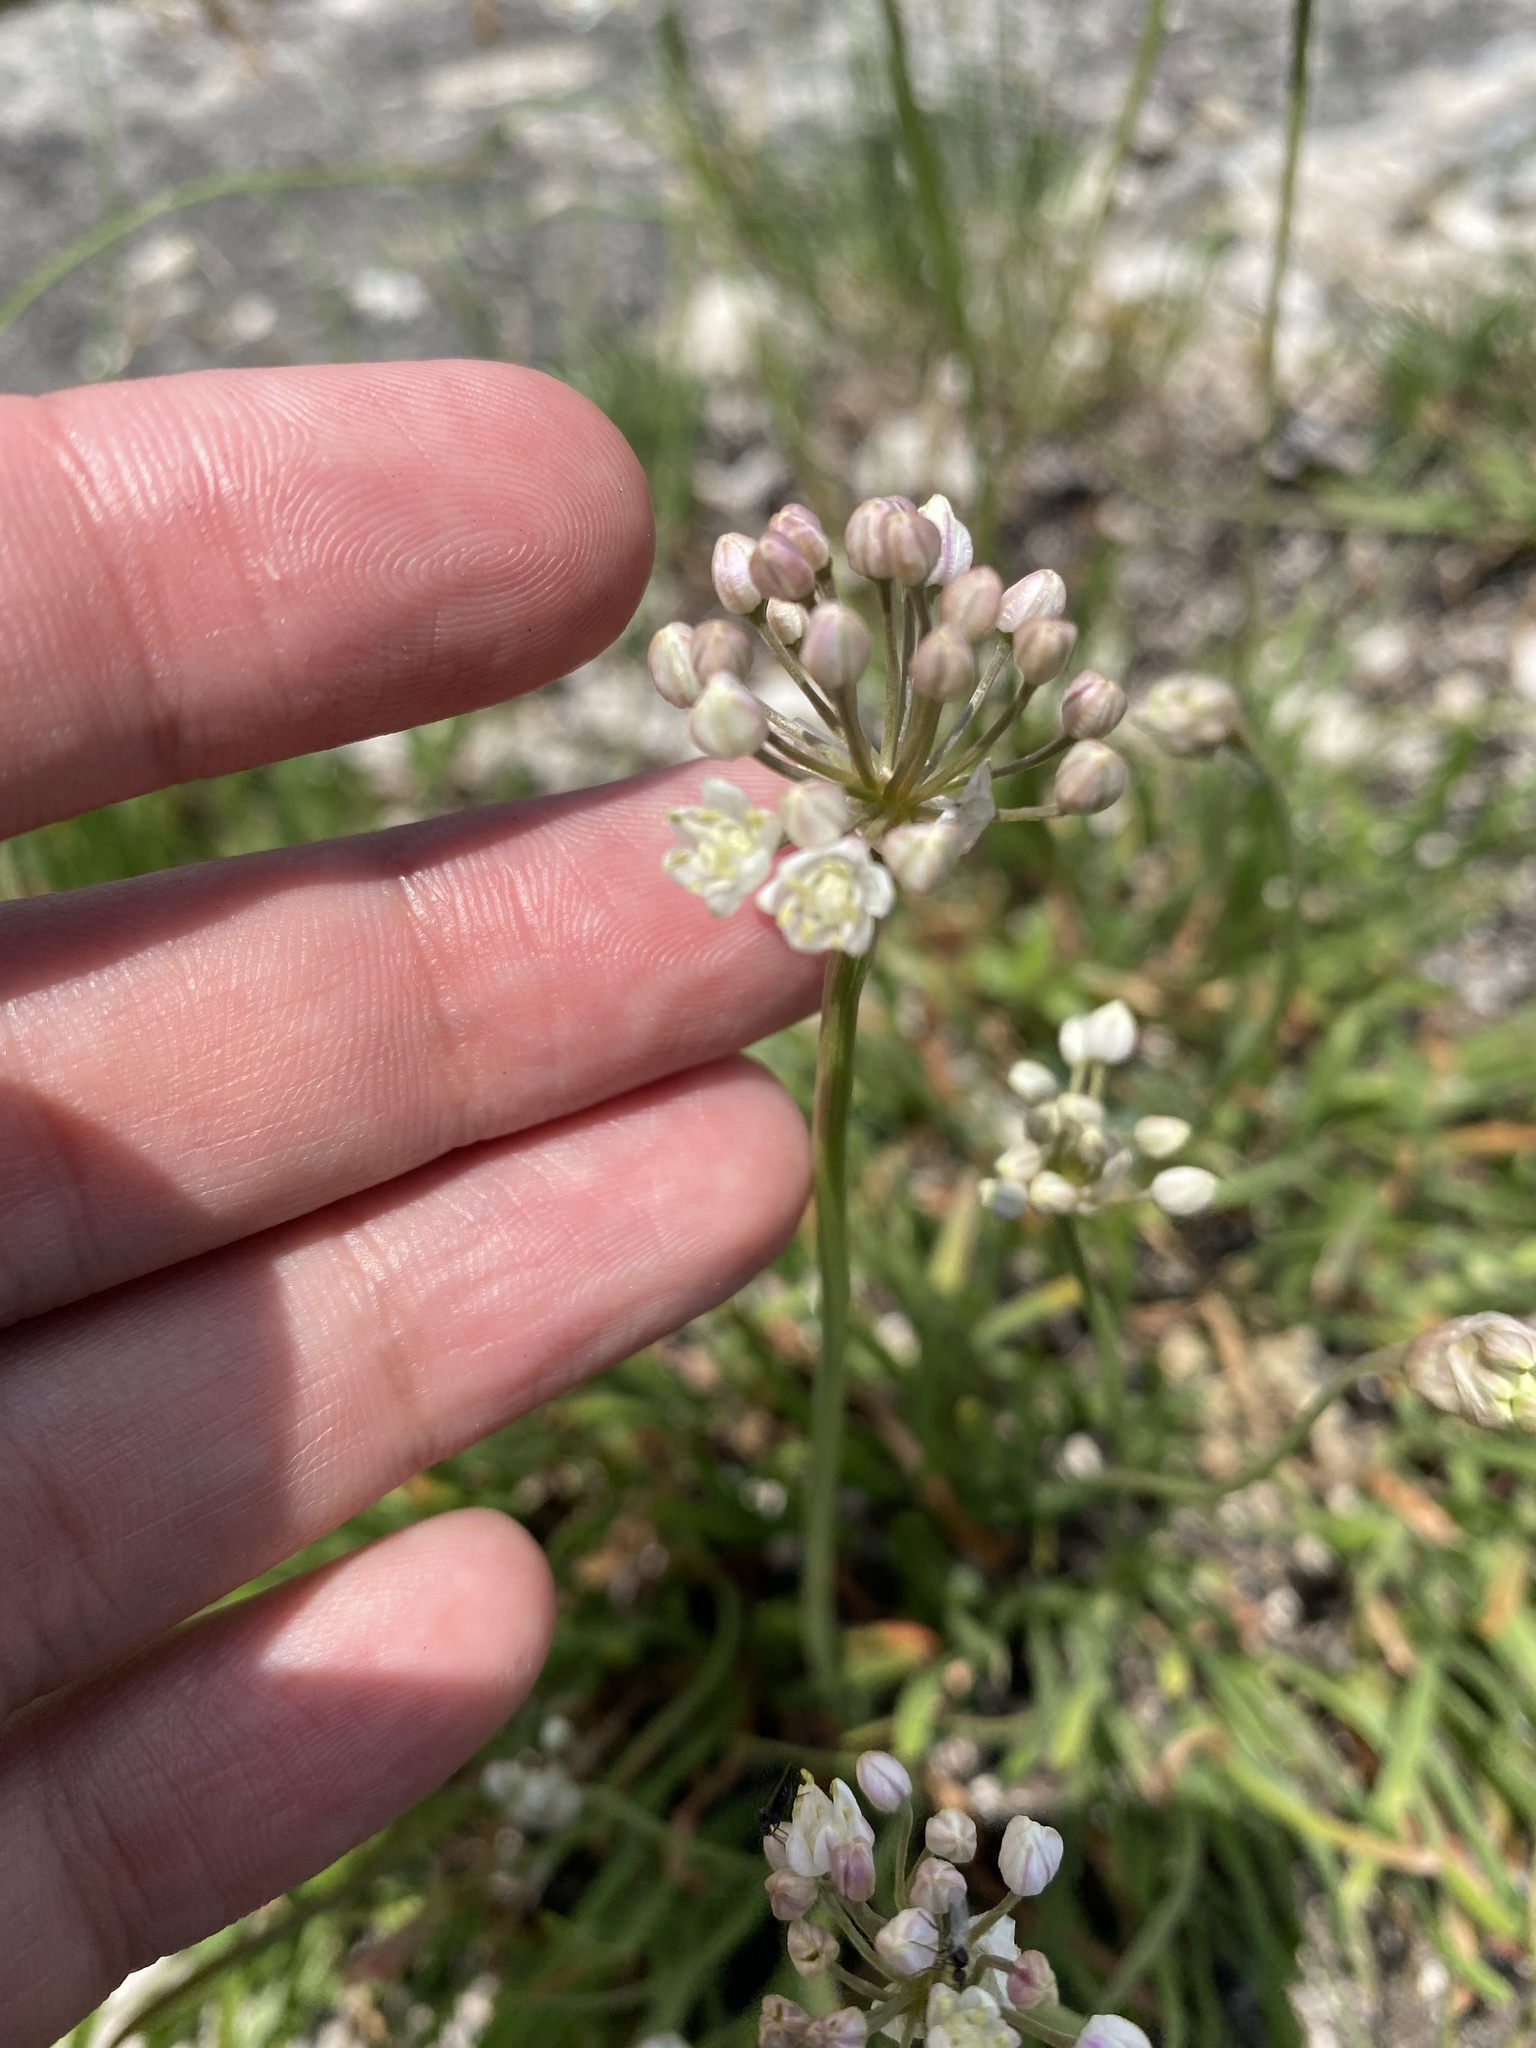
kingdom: Plantae
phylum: Tracheophyta
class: Liliopsida
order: Asparagales
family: Amaryllidaceae
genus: Allium
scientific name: Allium denudatum
